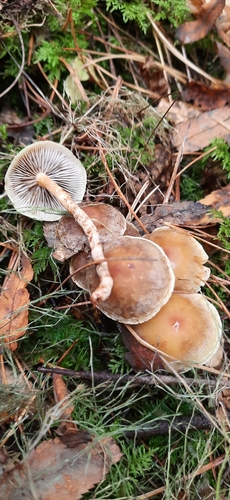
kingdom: Fungi
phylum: Basidiomycota
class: Agaricomycetes
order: Agaricales
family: Strophariaceae
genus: Hypholoma
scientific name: Hypholoma capnoides
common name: Conifer tuft
